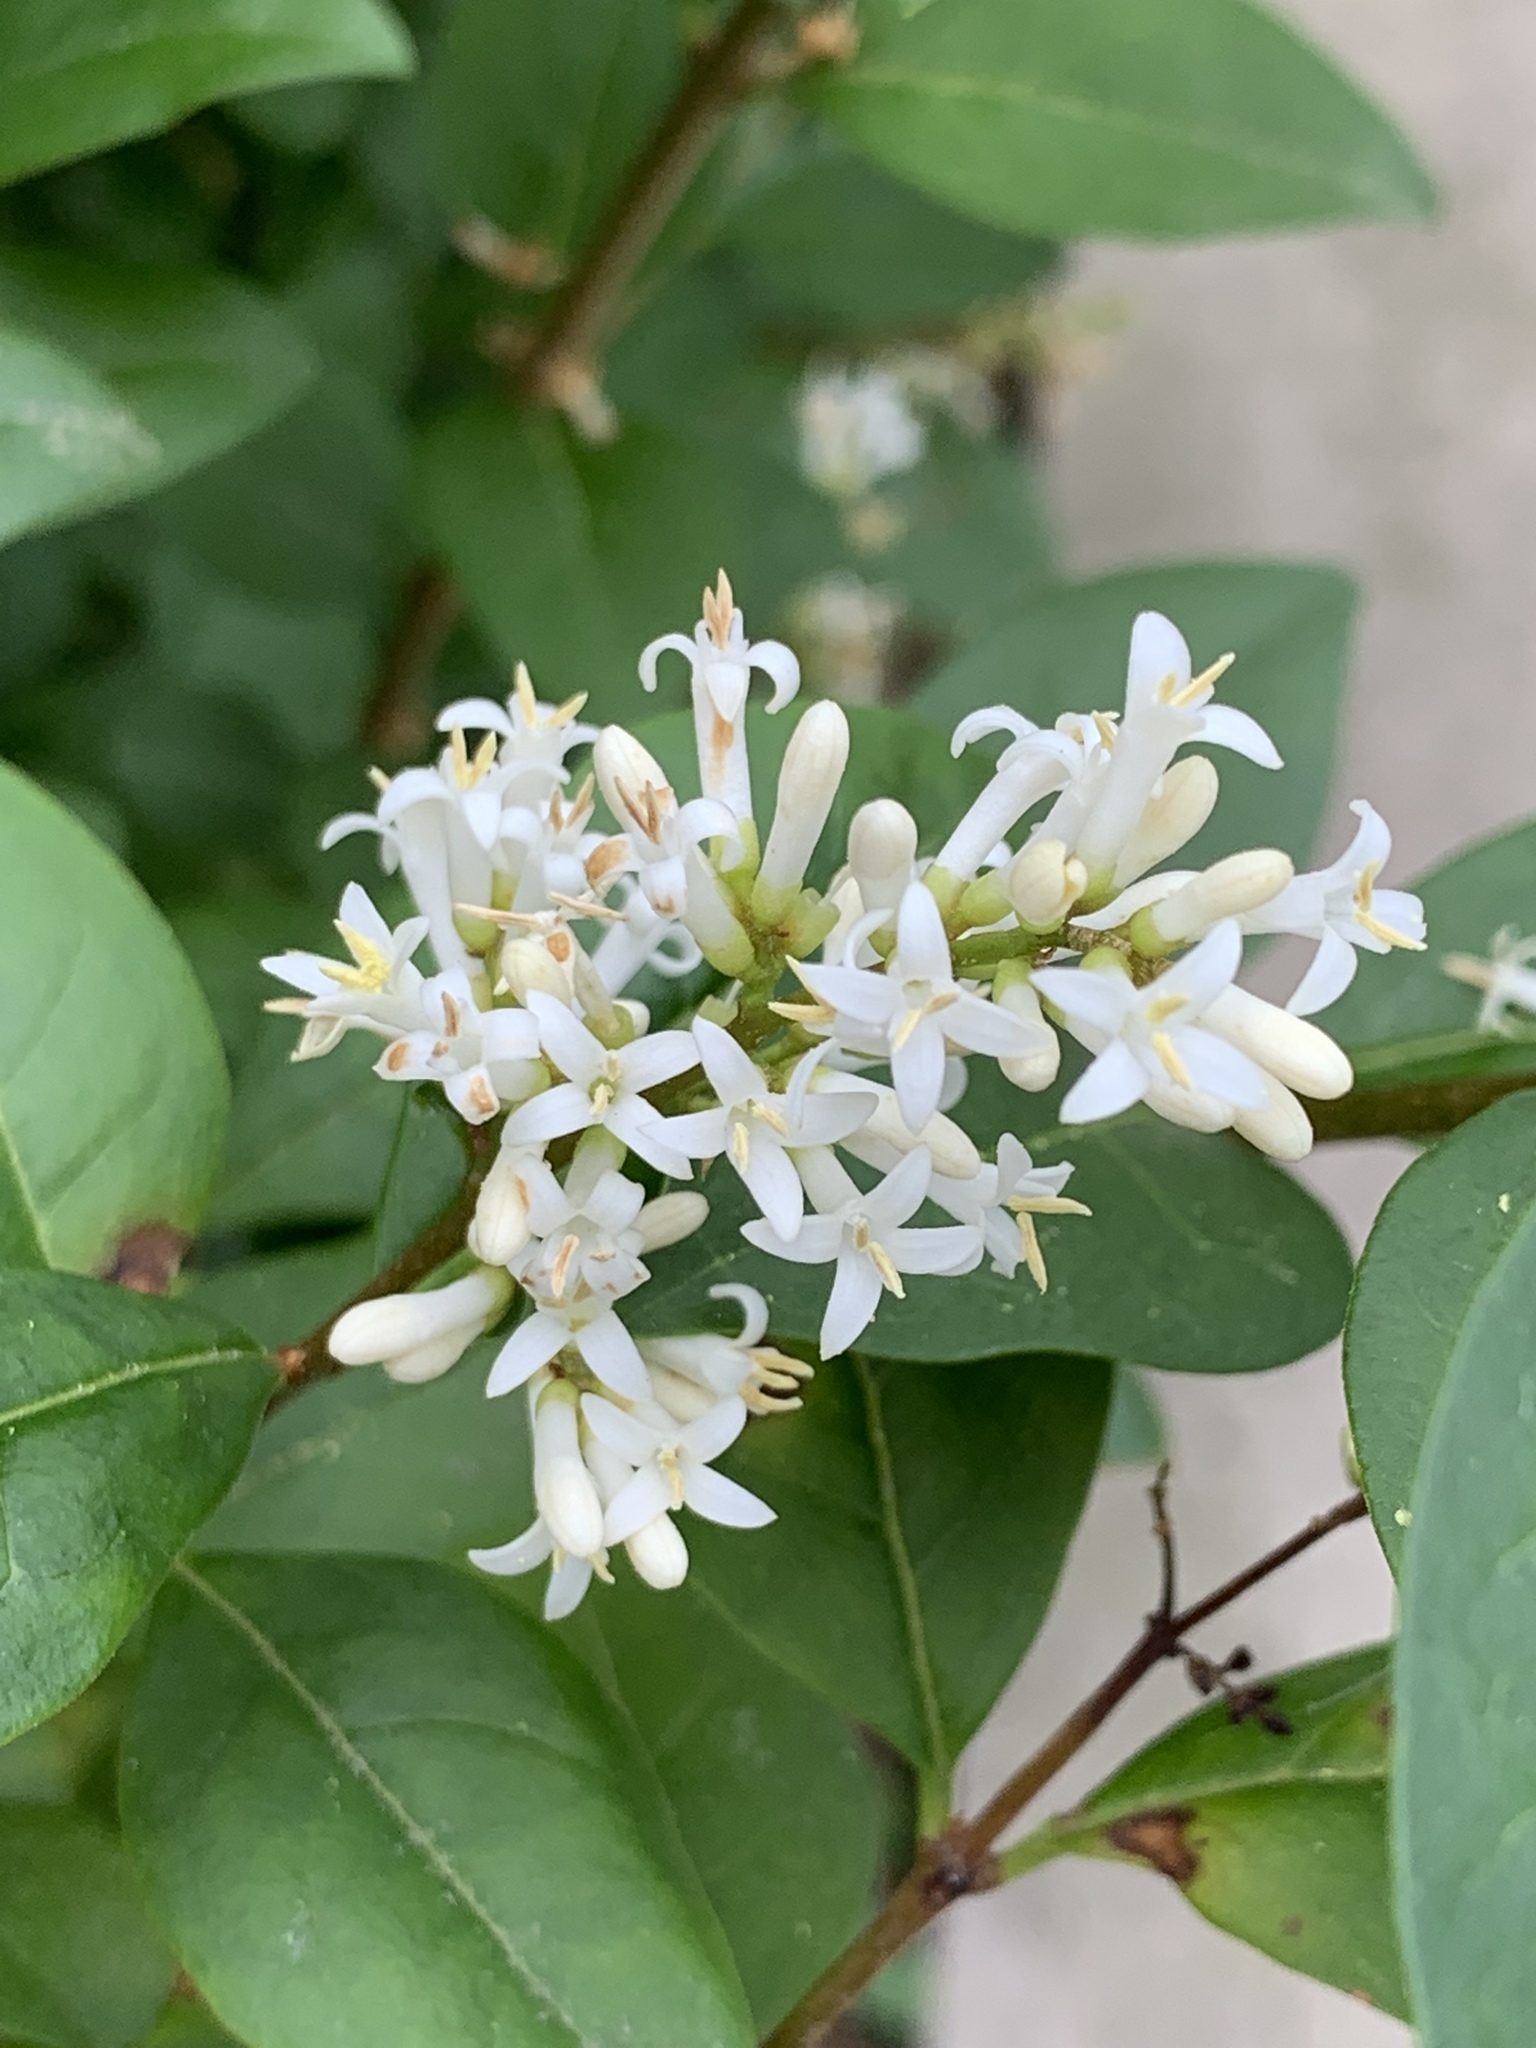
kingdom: Plantae
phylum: Tracheophyta
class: Magnoliopsida
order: Lamiales
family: Oleaceae
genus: Ligustrum
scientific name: Ligustrum ovalifolium
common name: California privet
